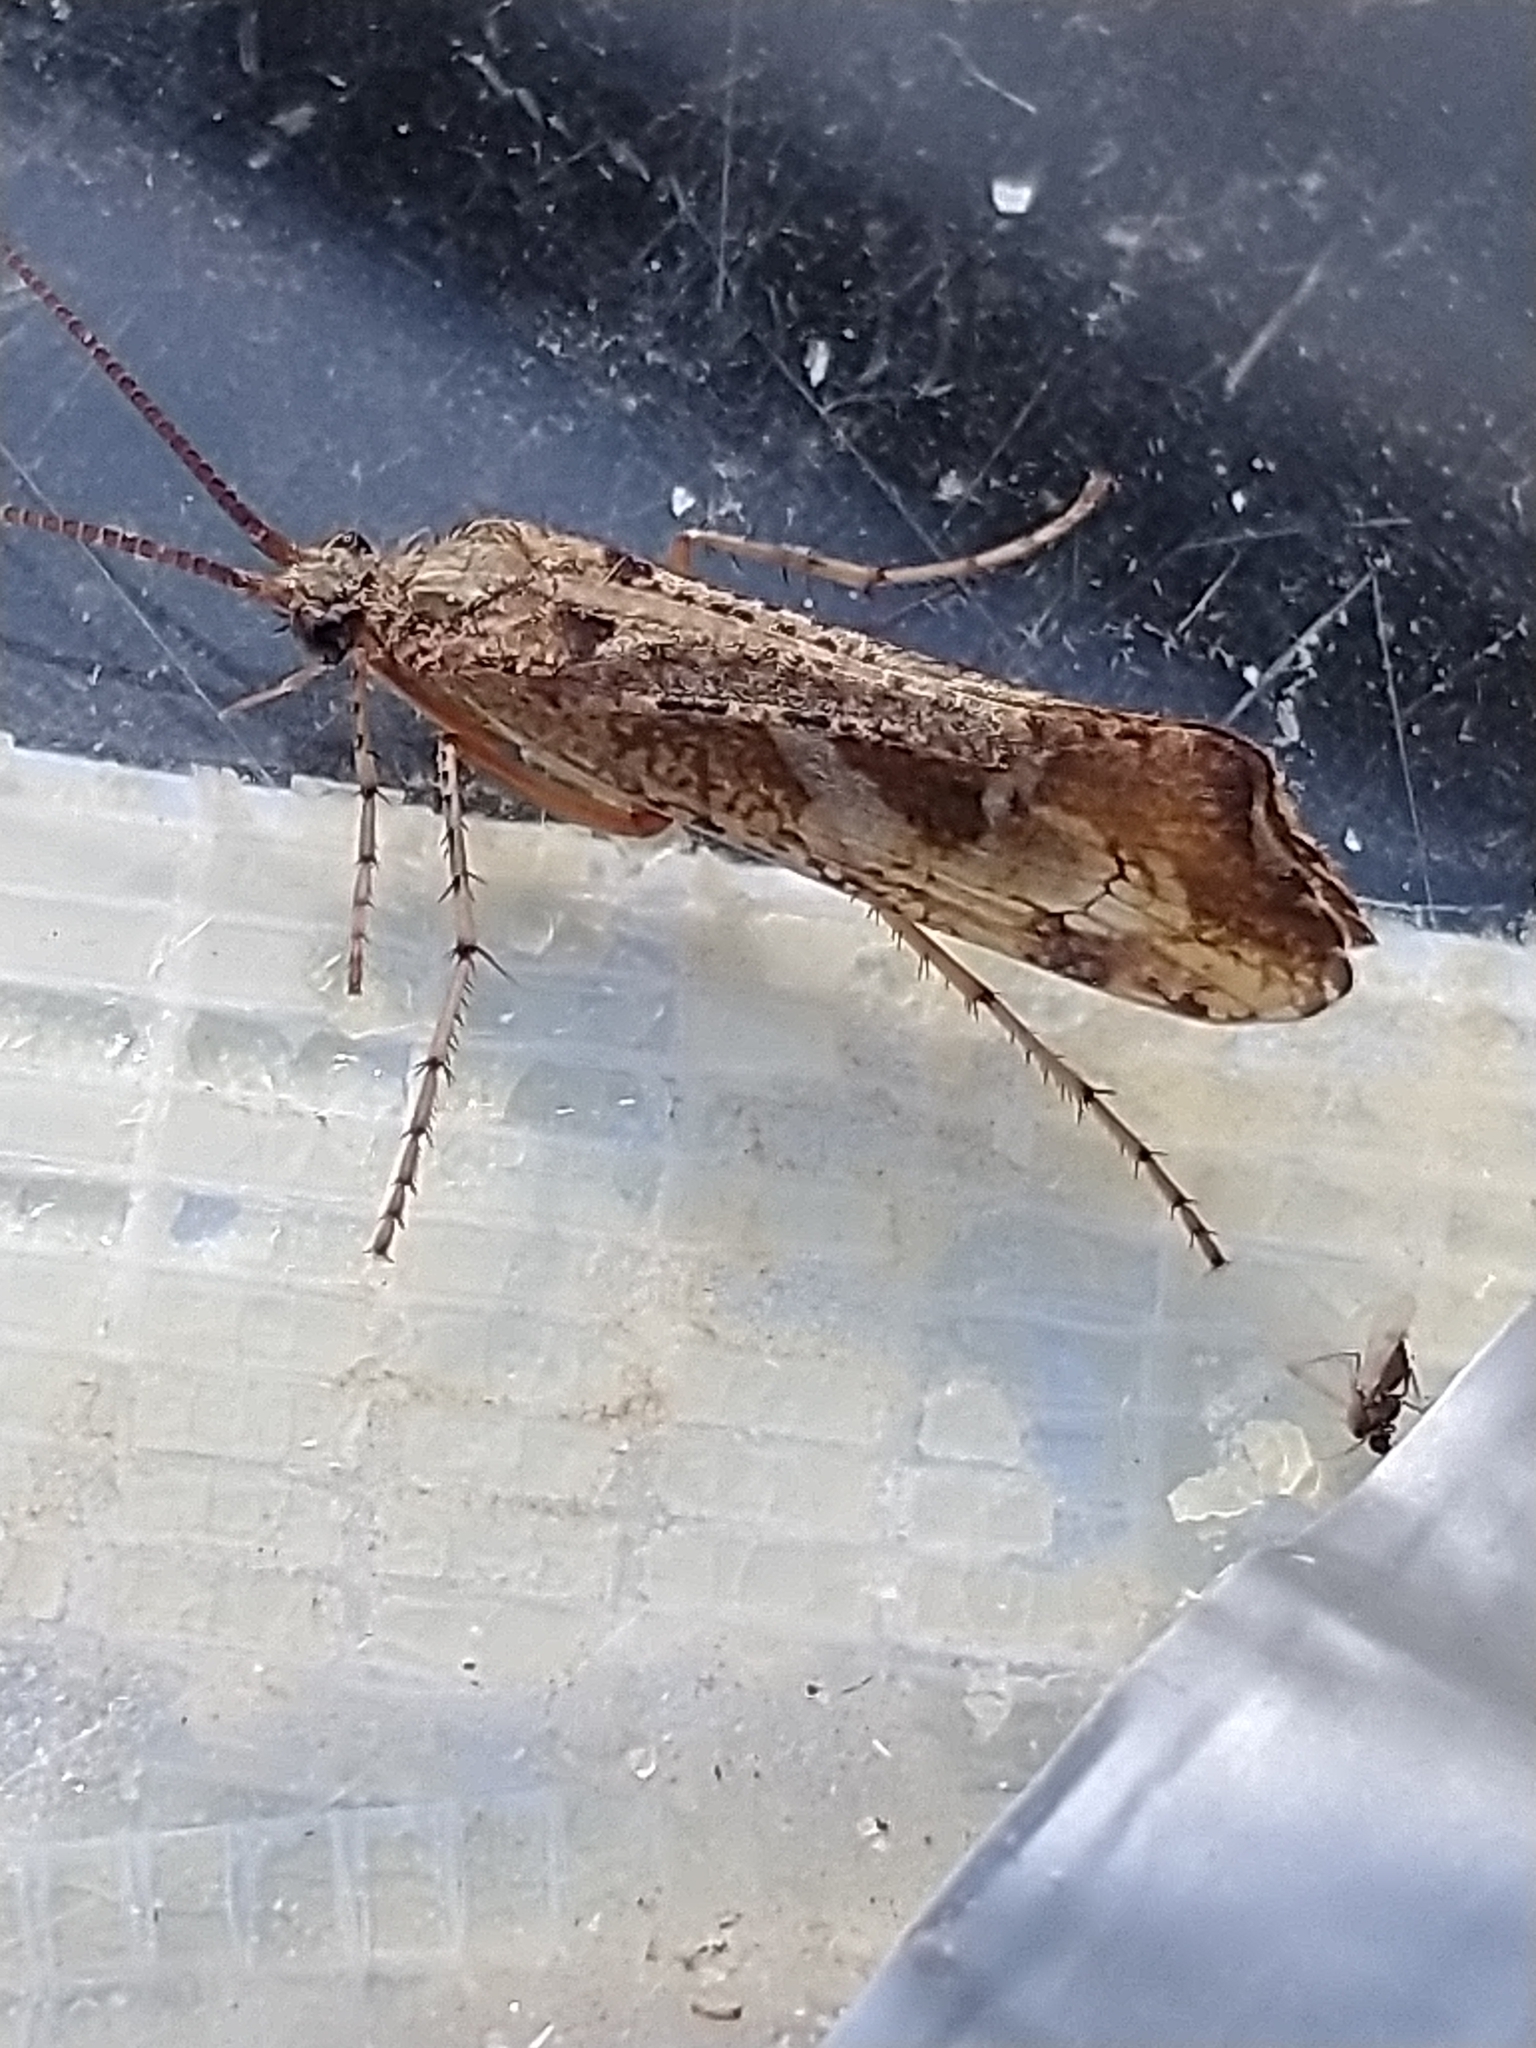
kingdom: Animalia
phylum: Arthropoda
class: Insecta
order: Trichoptera
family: Limnephilidae
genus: Glyphotaelius
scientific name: Glyphotaelius pellucidus
